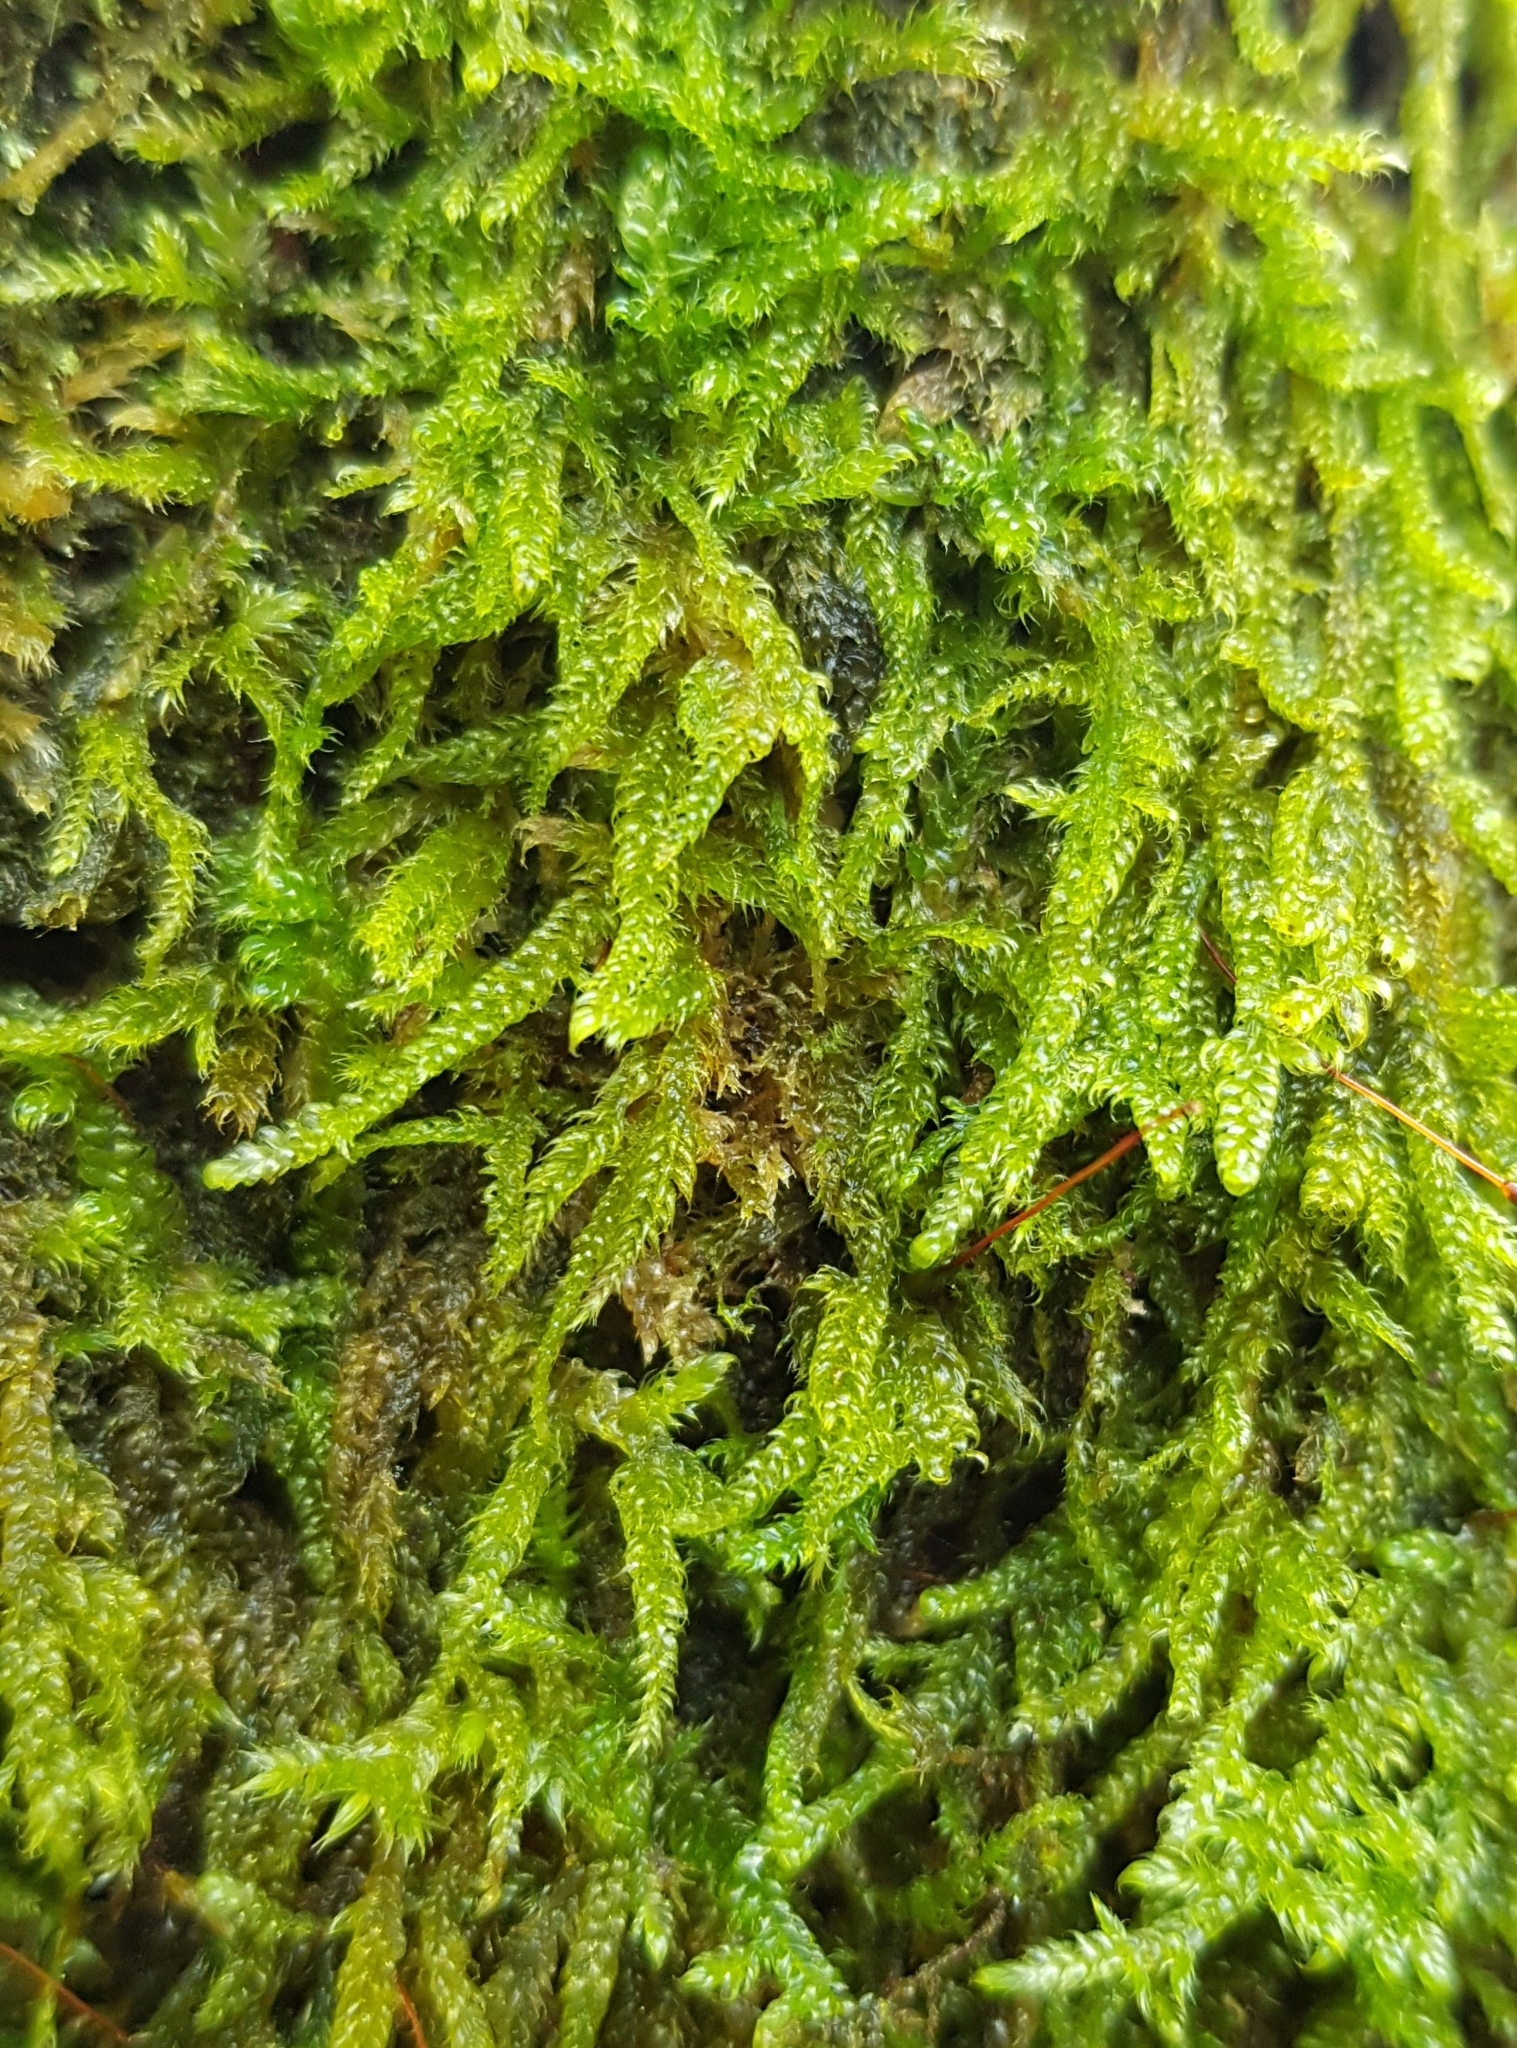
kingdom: Plantae
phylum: Bryophyta
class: Bryopsida
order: Hypnales
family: Hypnaceae
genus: Hypnum
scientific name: Hypnum cupressiforme
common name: Cypress-leaved plait-moss
